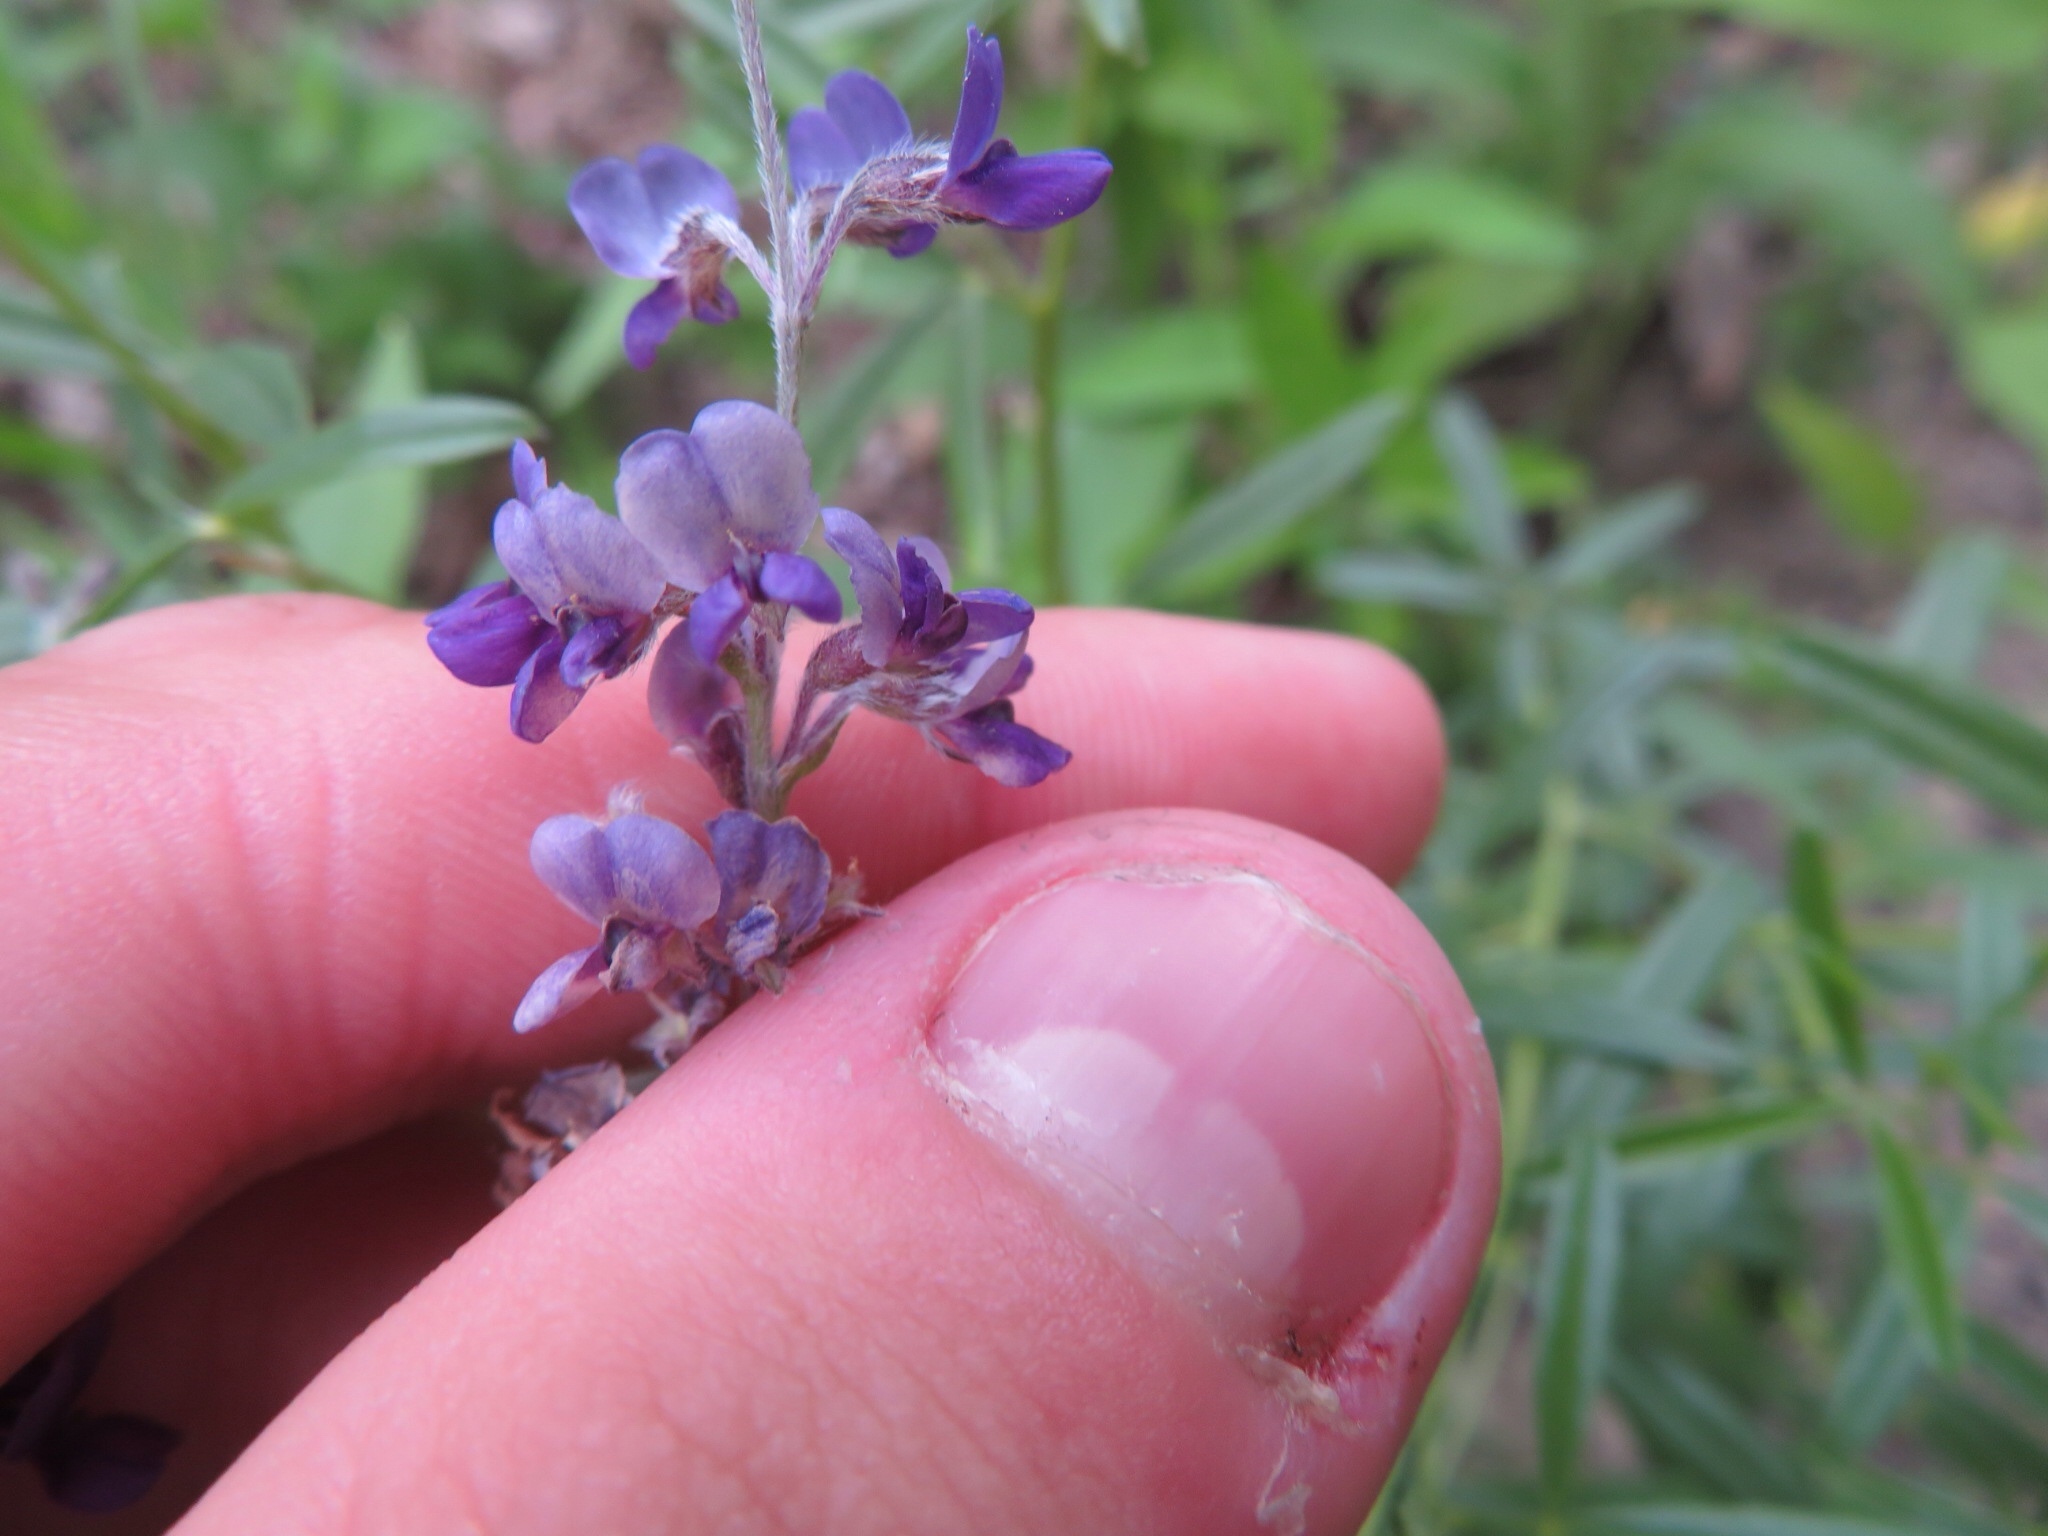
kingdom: Plantae
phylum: Tracheophyta
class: Magnoliopsida
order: Fabales
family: Fabaceae
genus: Pediomelum
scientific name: Pediomelum tenuiflorum
